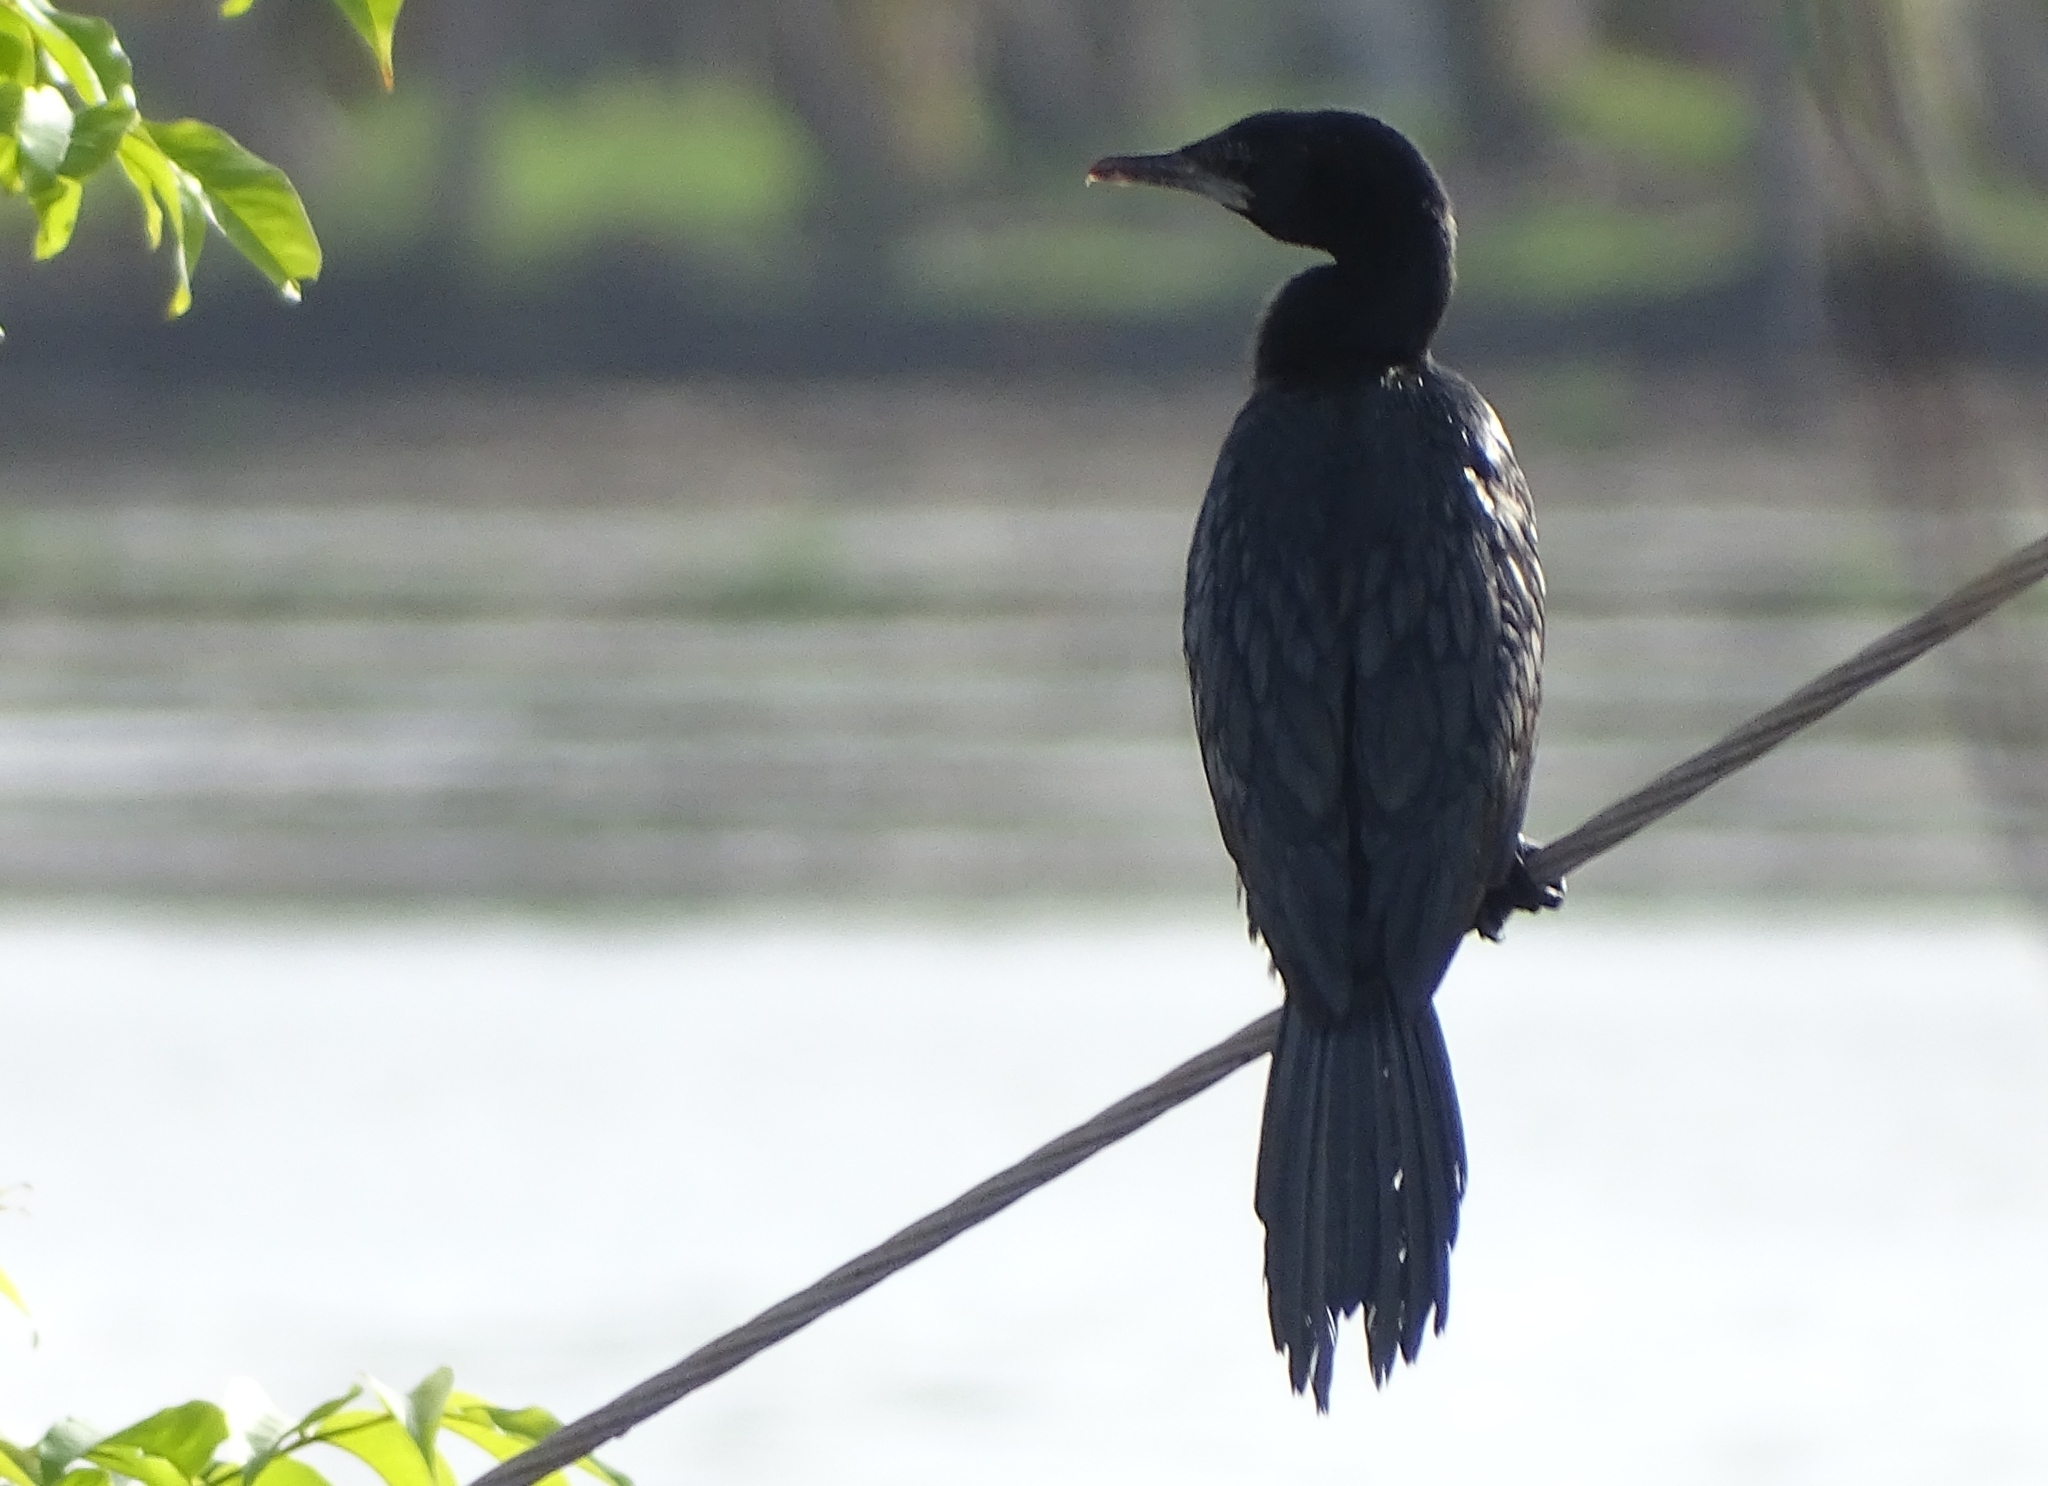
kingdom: Animalia
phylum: Chordata
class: Aves
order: Suliformes
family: Phalacrocoracidae
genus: Microcarbo
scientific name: Microcarbo niger
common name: Little cormorant
